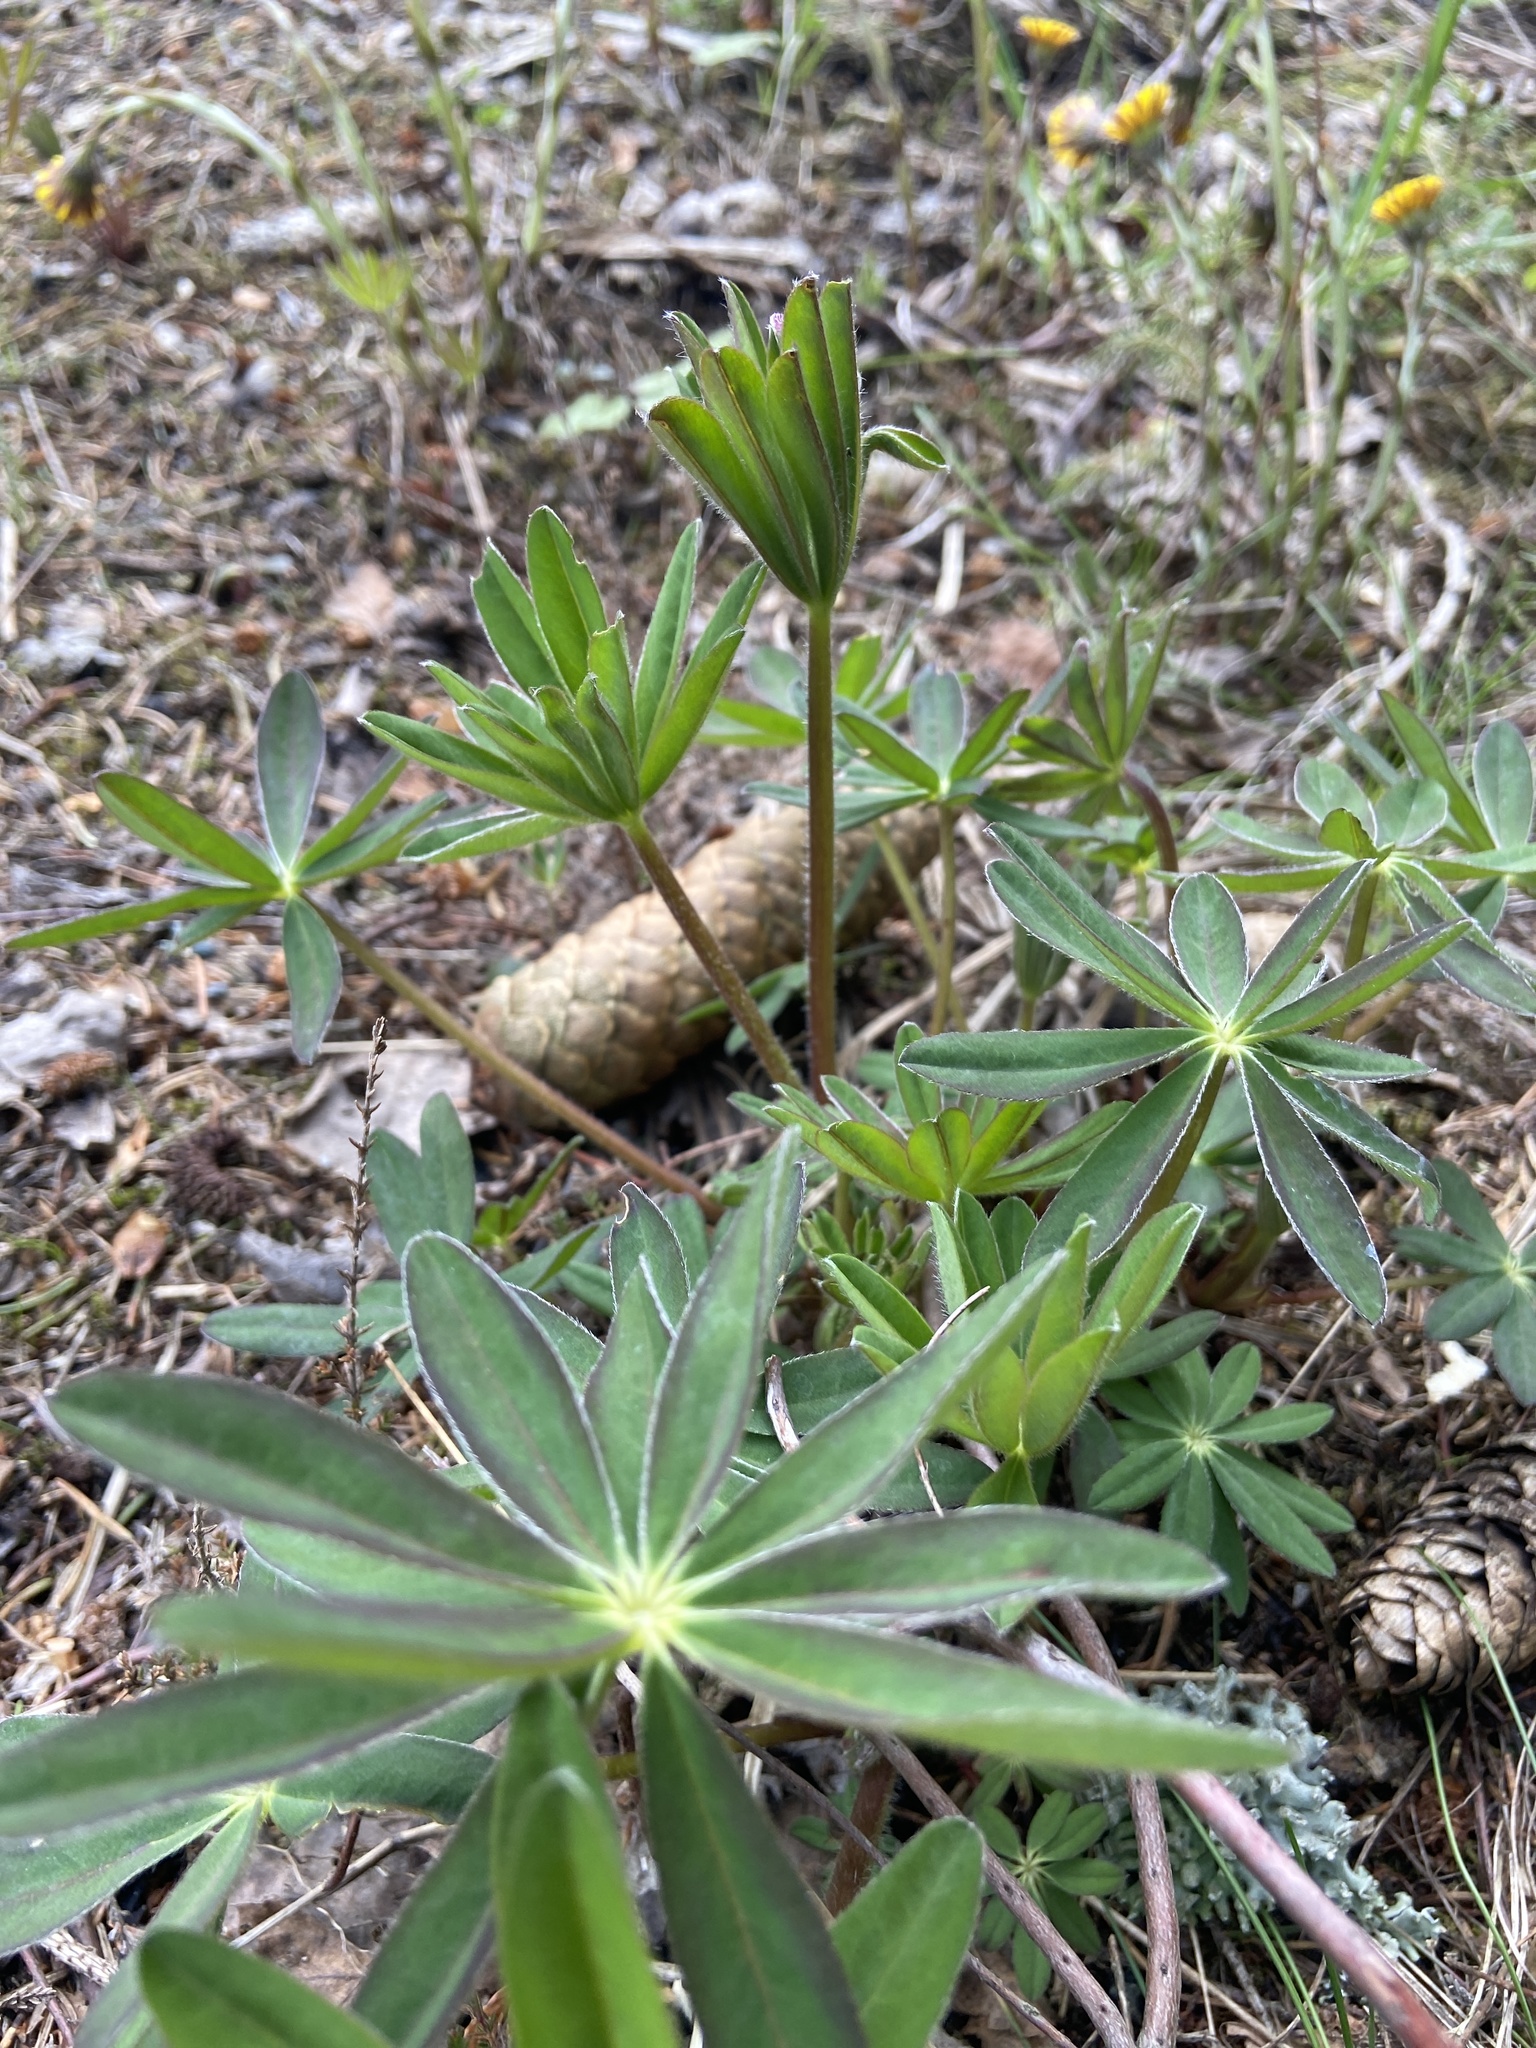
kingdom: Plantae
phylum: Tracheophyta
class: Magnoliopsida
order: Fabales
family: Fabaceae
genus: Lupinus
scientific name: Lupinus polyphyllus
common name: Garden lupin
